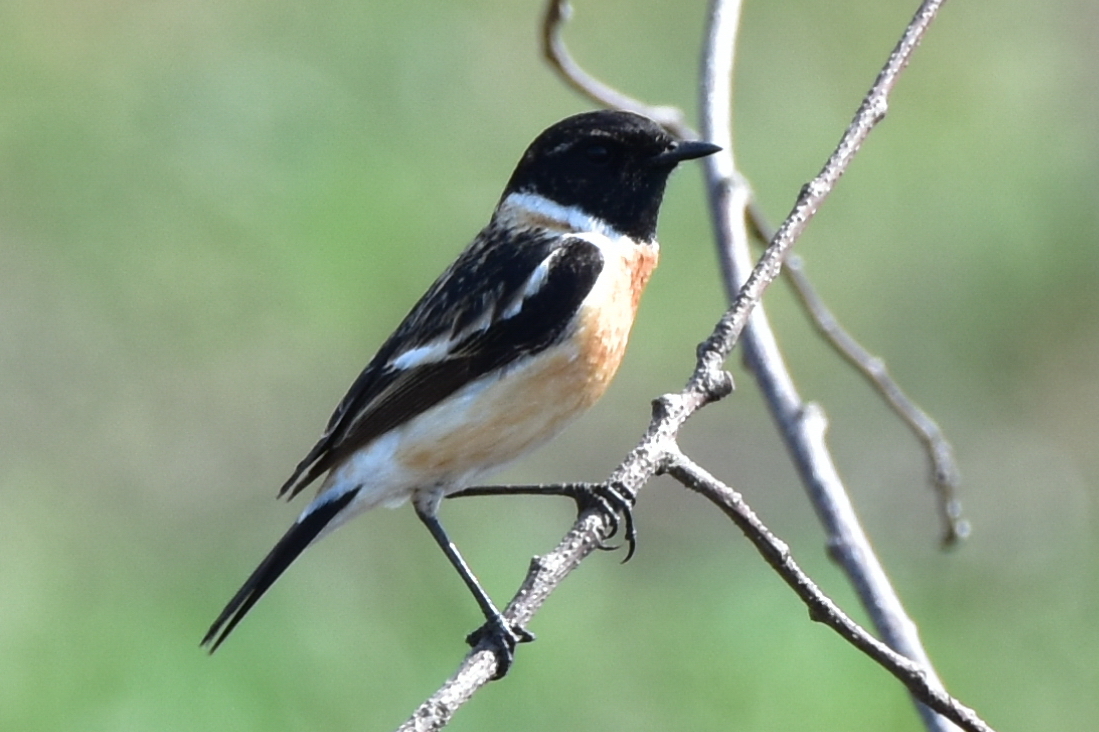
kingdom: Animalia
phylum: Chordata
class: Aves
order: Passeriformes
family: Muscicapidae
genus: Saxicola
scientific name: Saxicola maurus
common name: Siberian stonechat
